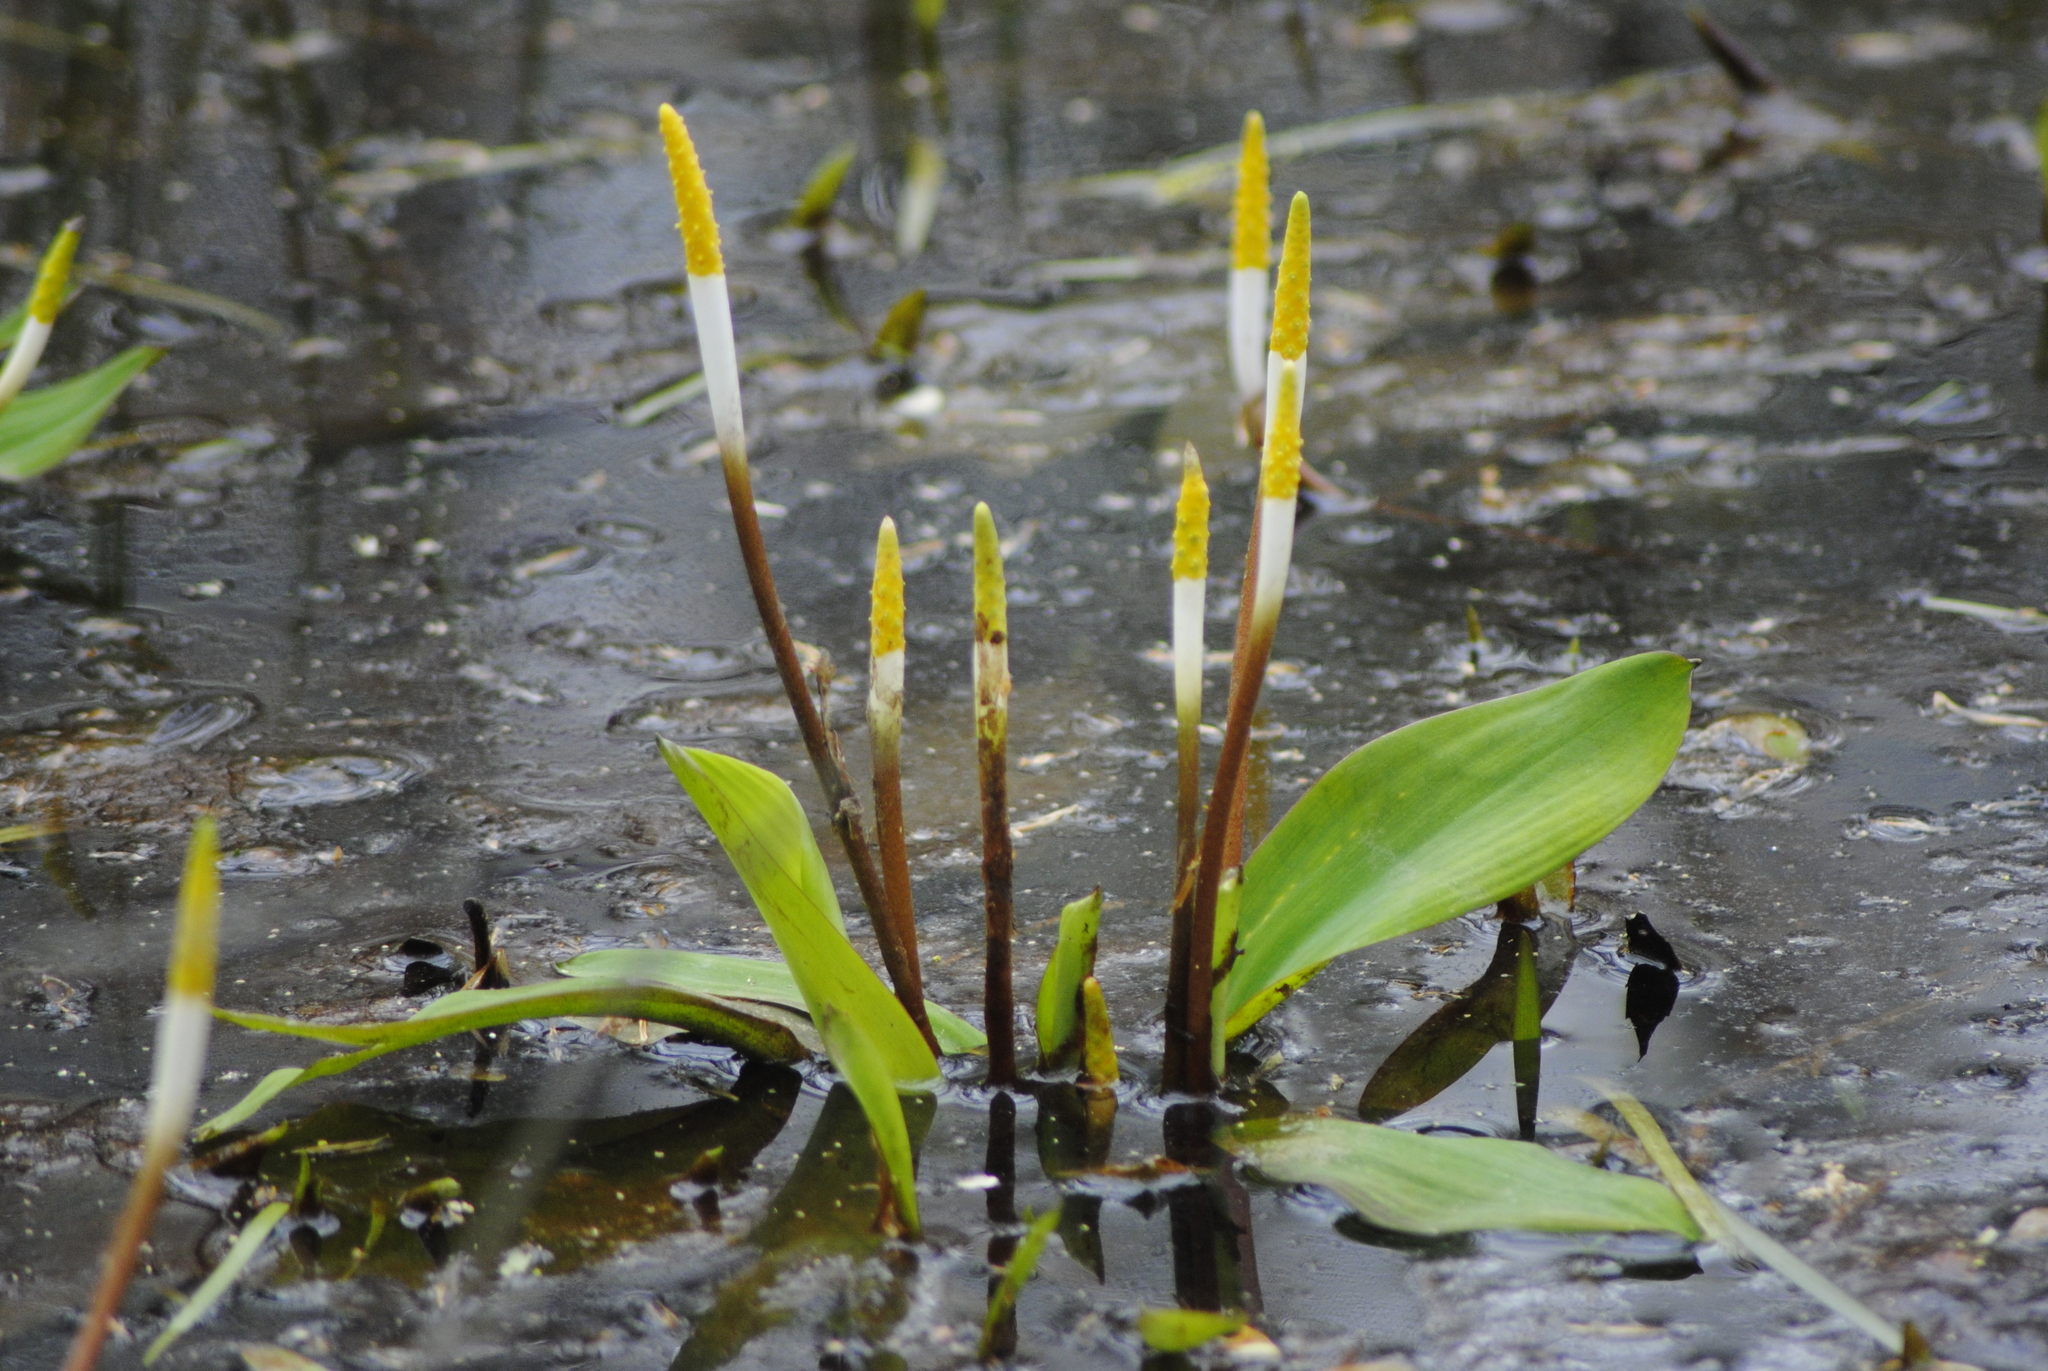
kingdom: Plantae
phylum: Tracheophyta
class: Liliopsida
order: Alismatales
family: Araceae
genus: Orontium
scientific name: Orontium aquaticum
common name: Golden-club
